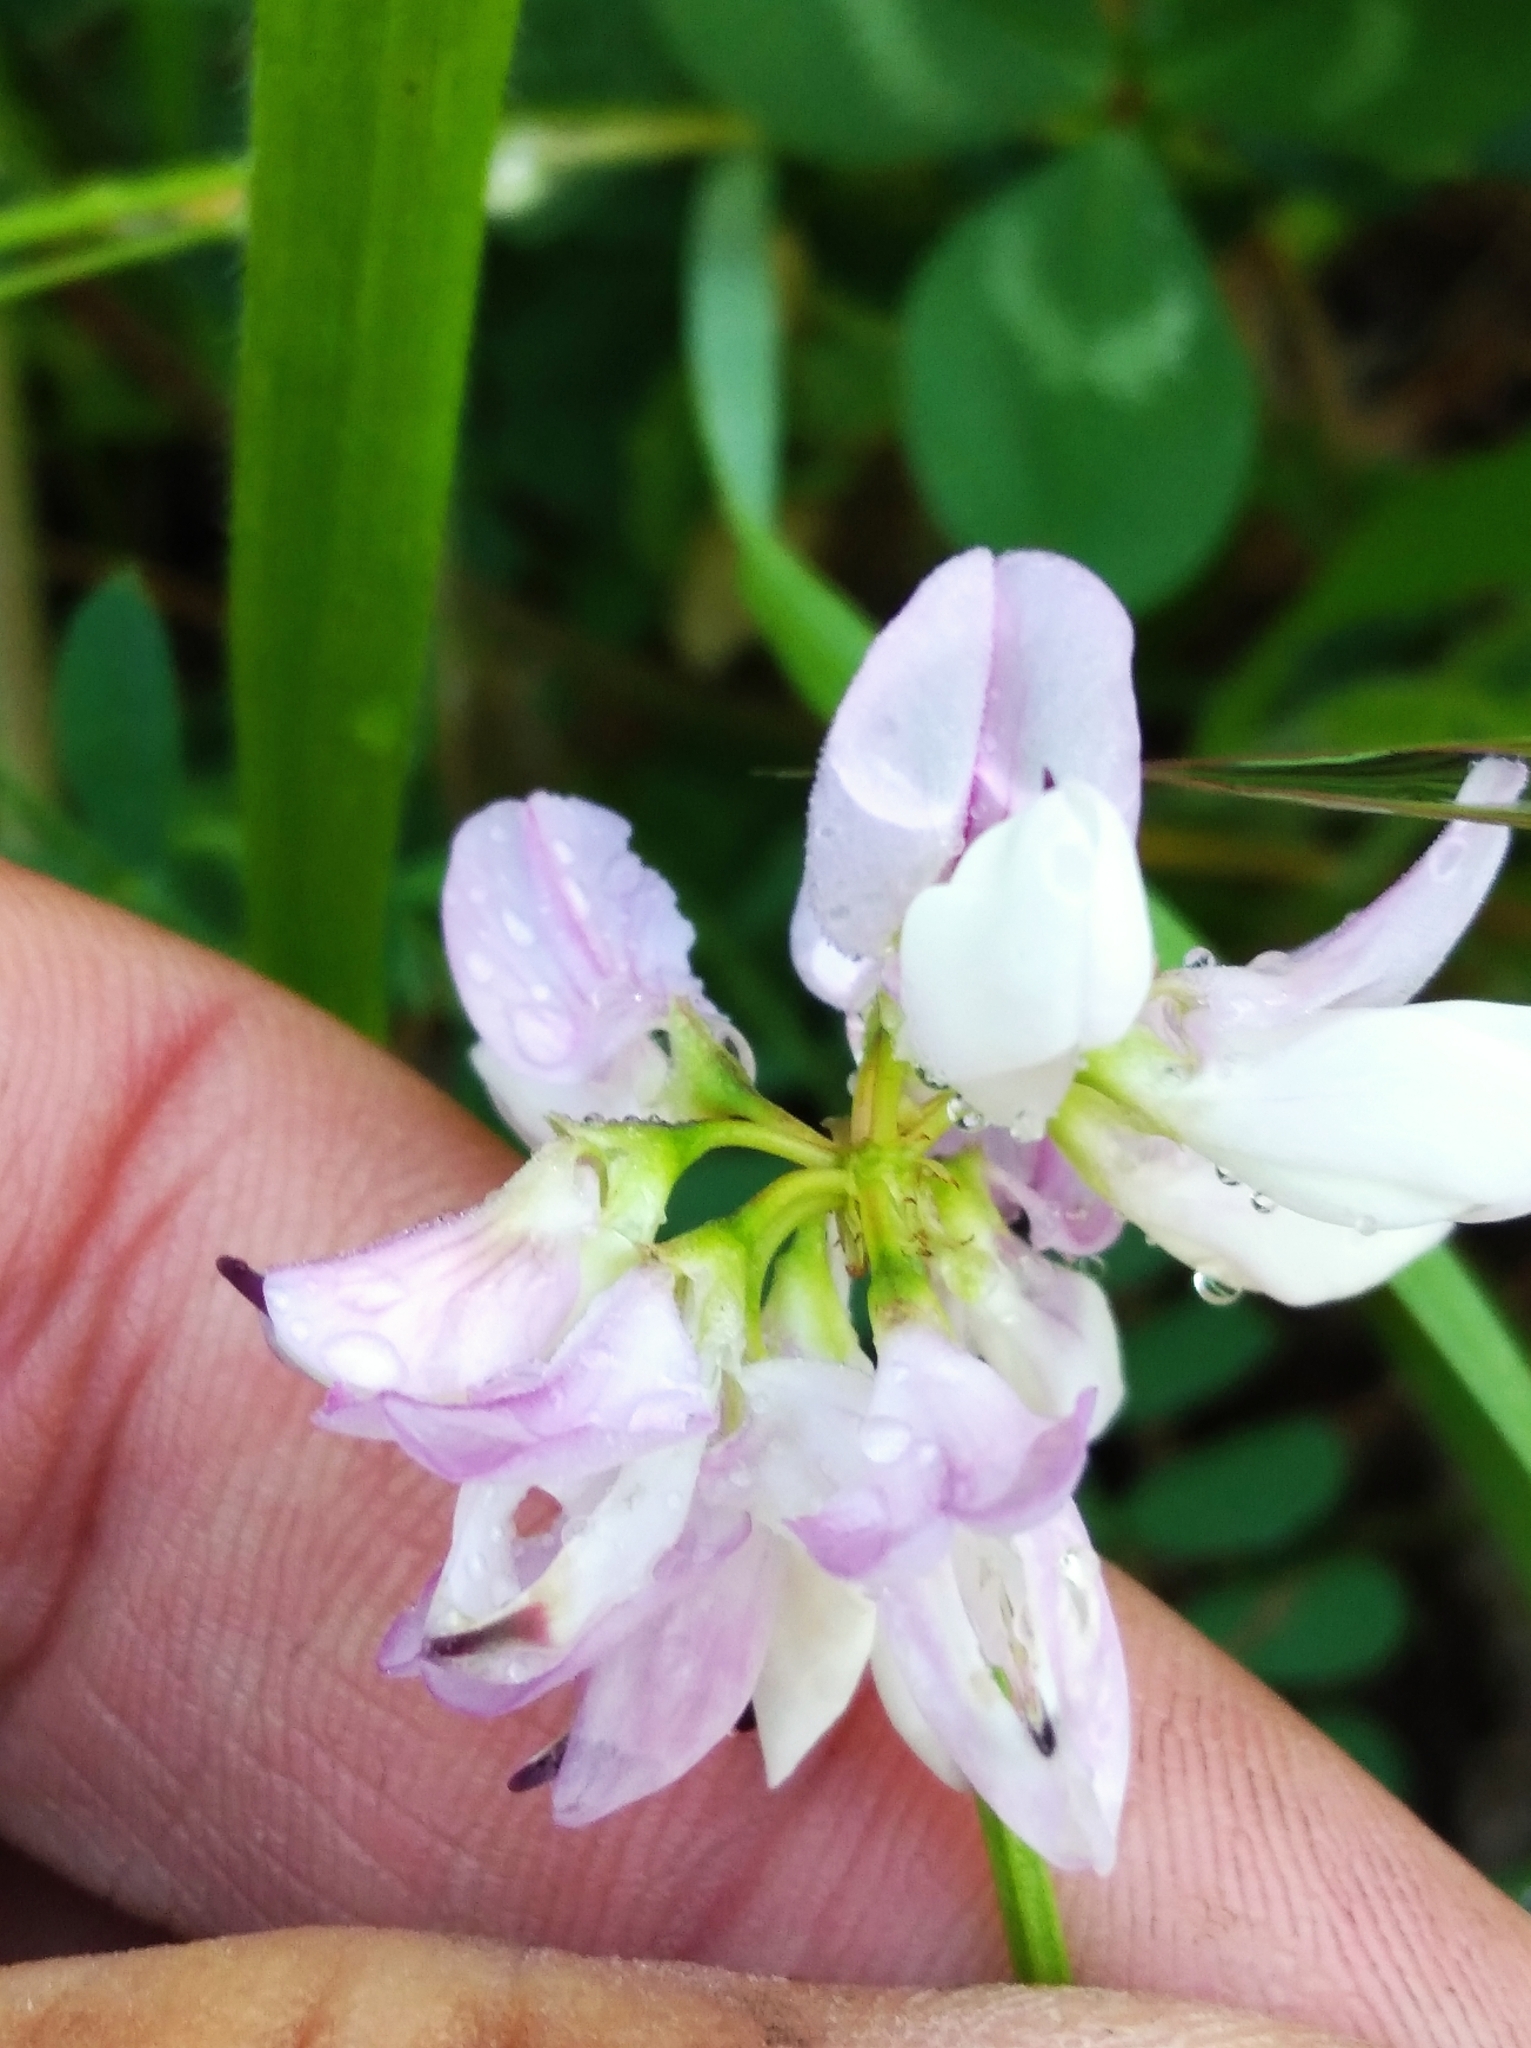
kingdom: Plantae
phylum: Tracheophyta
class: Magnoliopsida
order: Fabales
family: Fabaceae
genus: Coronilla
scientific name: Coronilla varia
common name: Crownvetch
